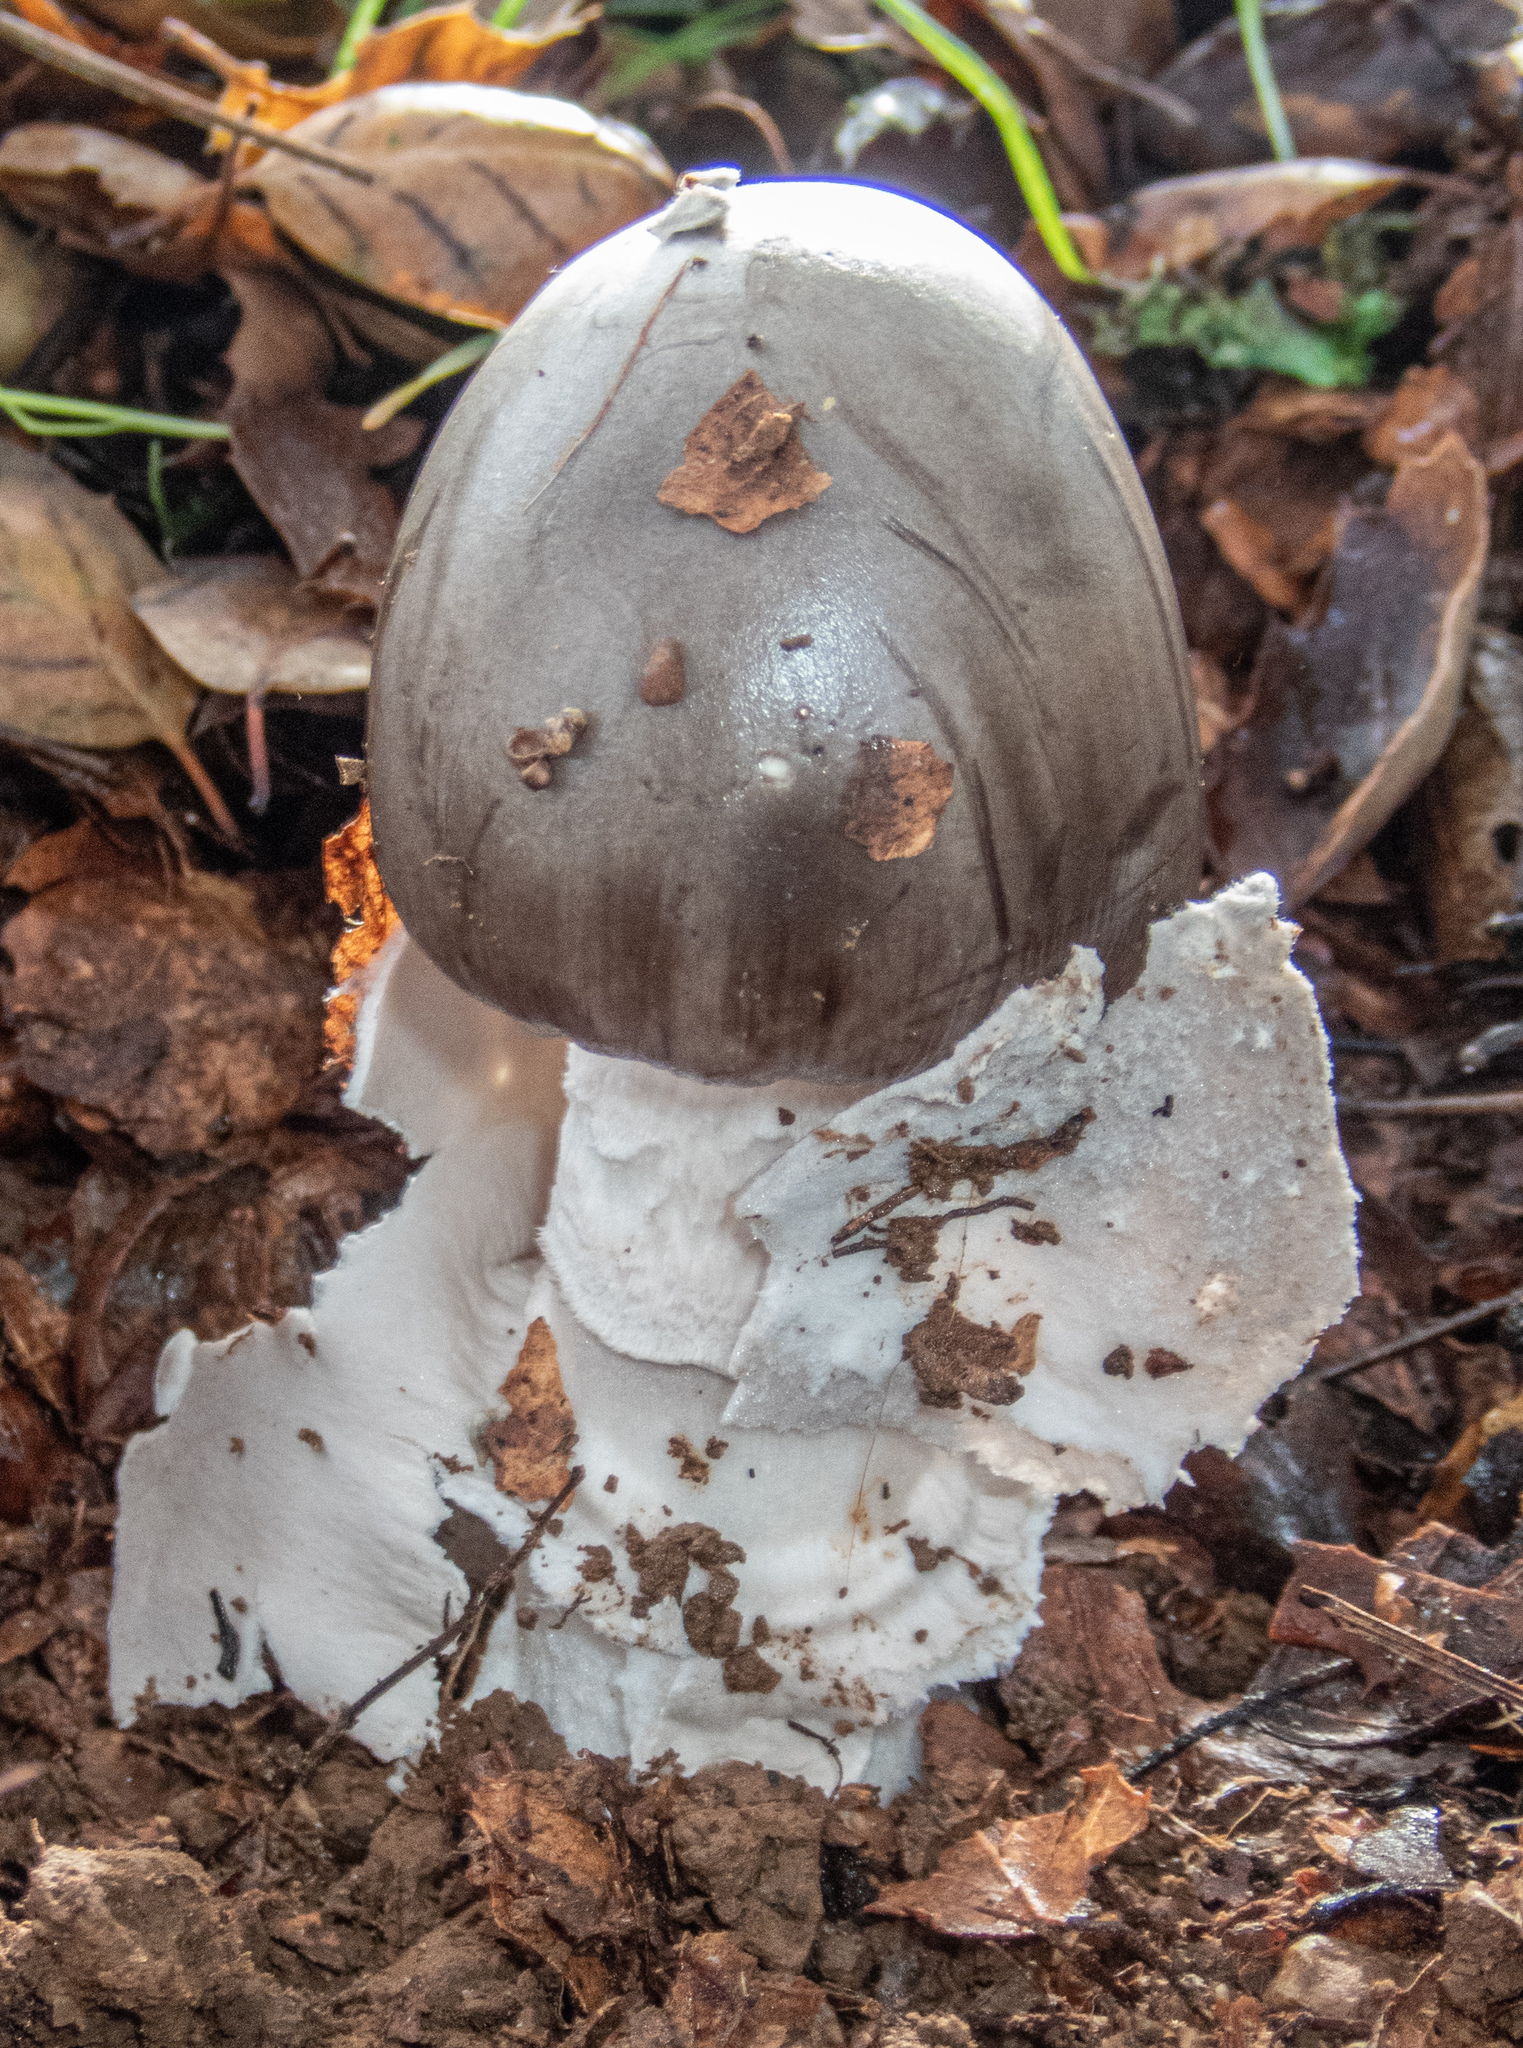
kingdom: Fungi
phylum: Basidiomycota
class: Agaricomycetes
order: Agaricales
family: Amanitaceae
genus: Amanita
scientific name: Amanita constricta
